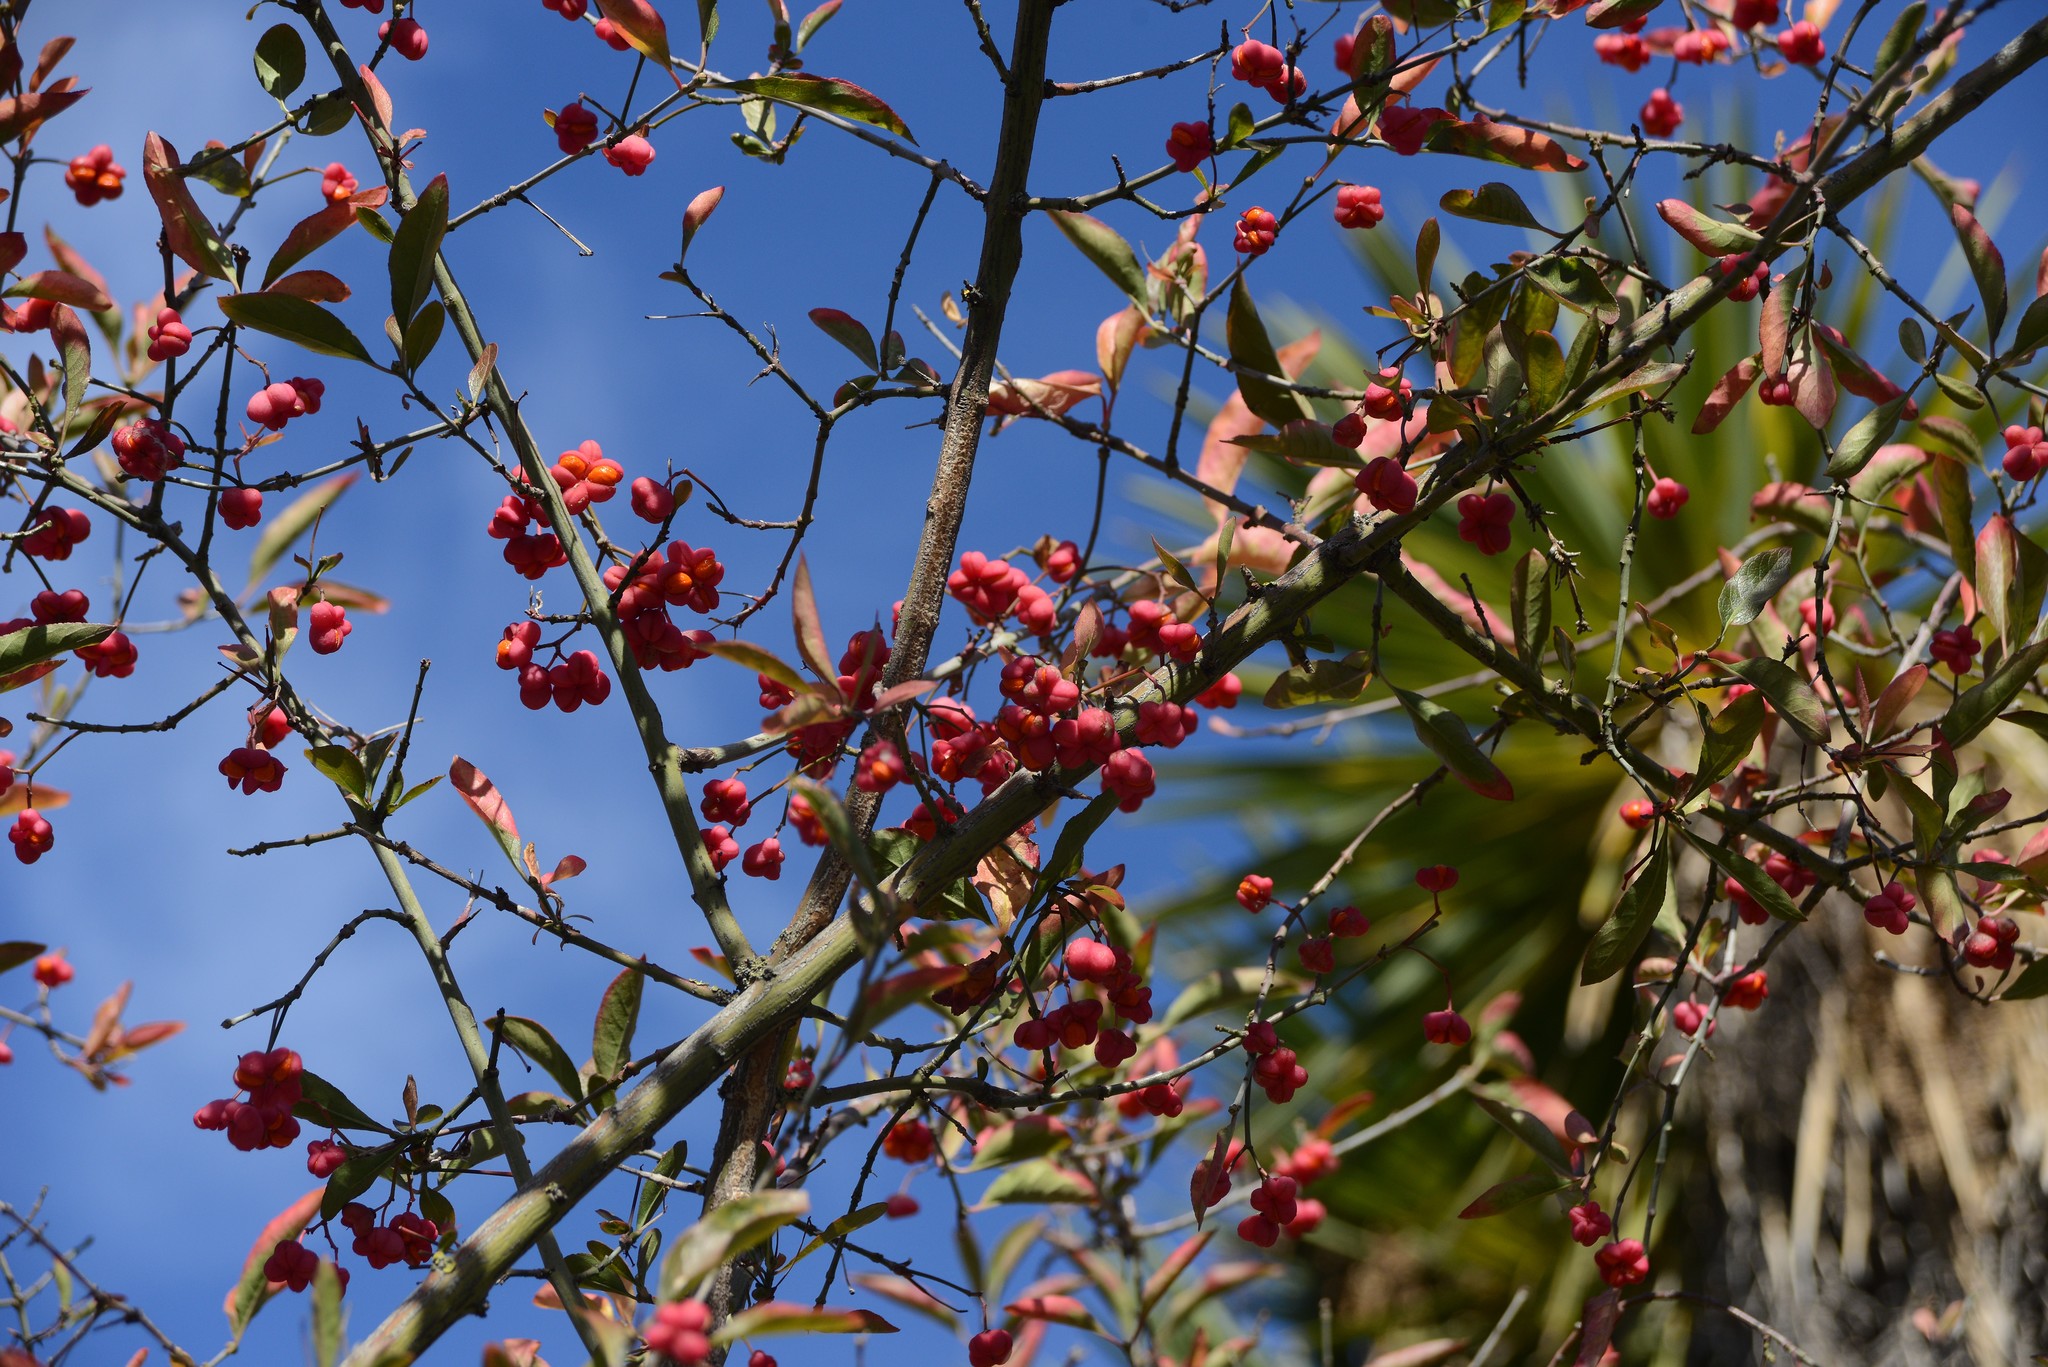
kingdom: Plantae
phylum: Tracheophyta
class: Magnoliopsida
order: Celastrales
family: Celastraceae
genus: Euonymus
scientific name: Euonymus europaeus
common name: Spindle
